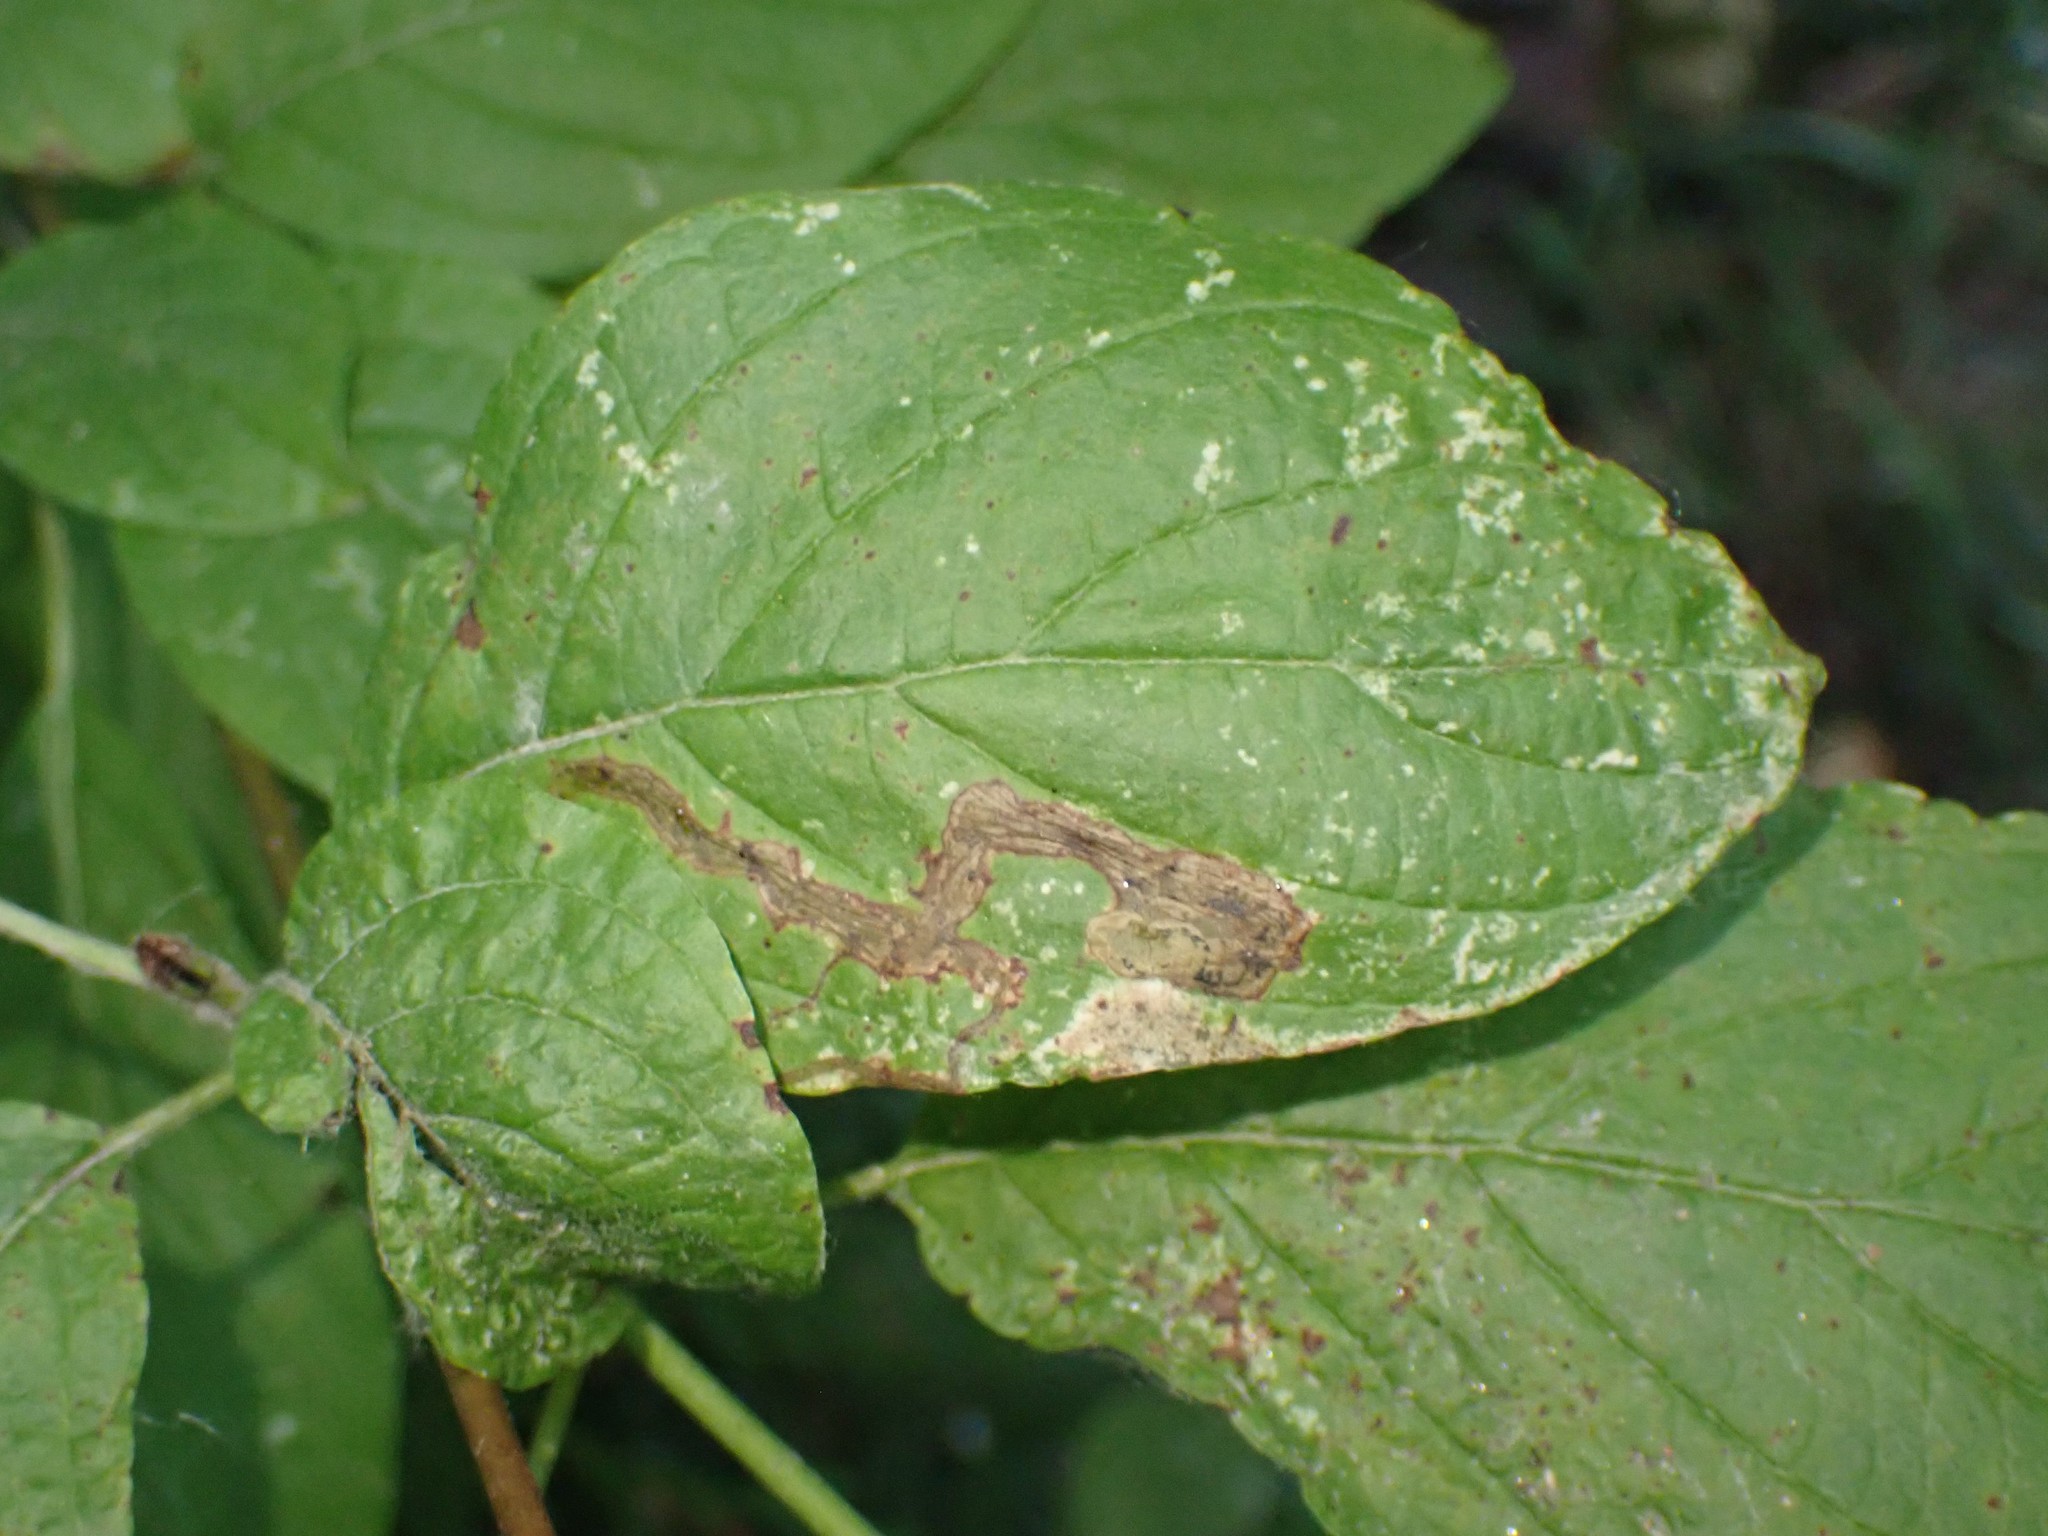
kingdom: Animalia
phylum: Arthropoda
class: Insecta
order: Diptera
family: Agromyzidae
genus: Phytomyza
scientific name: Phytomyza agromyzina
